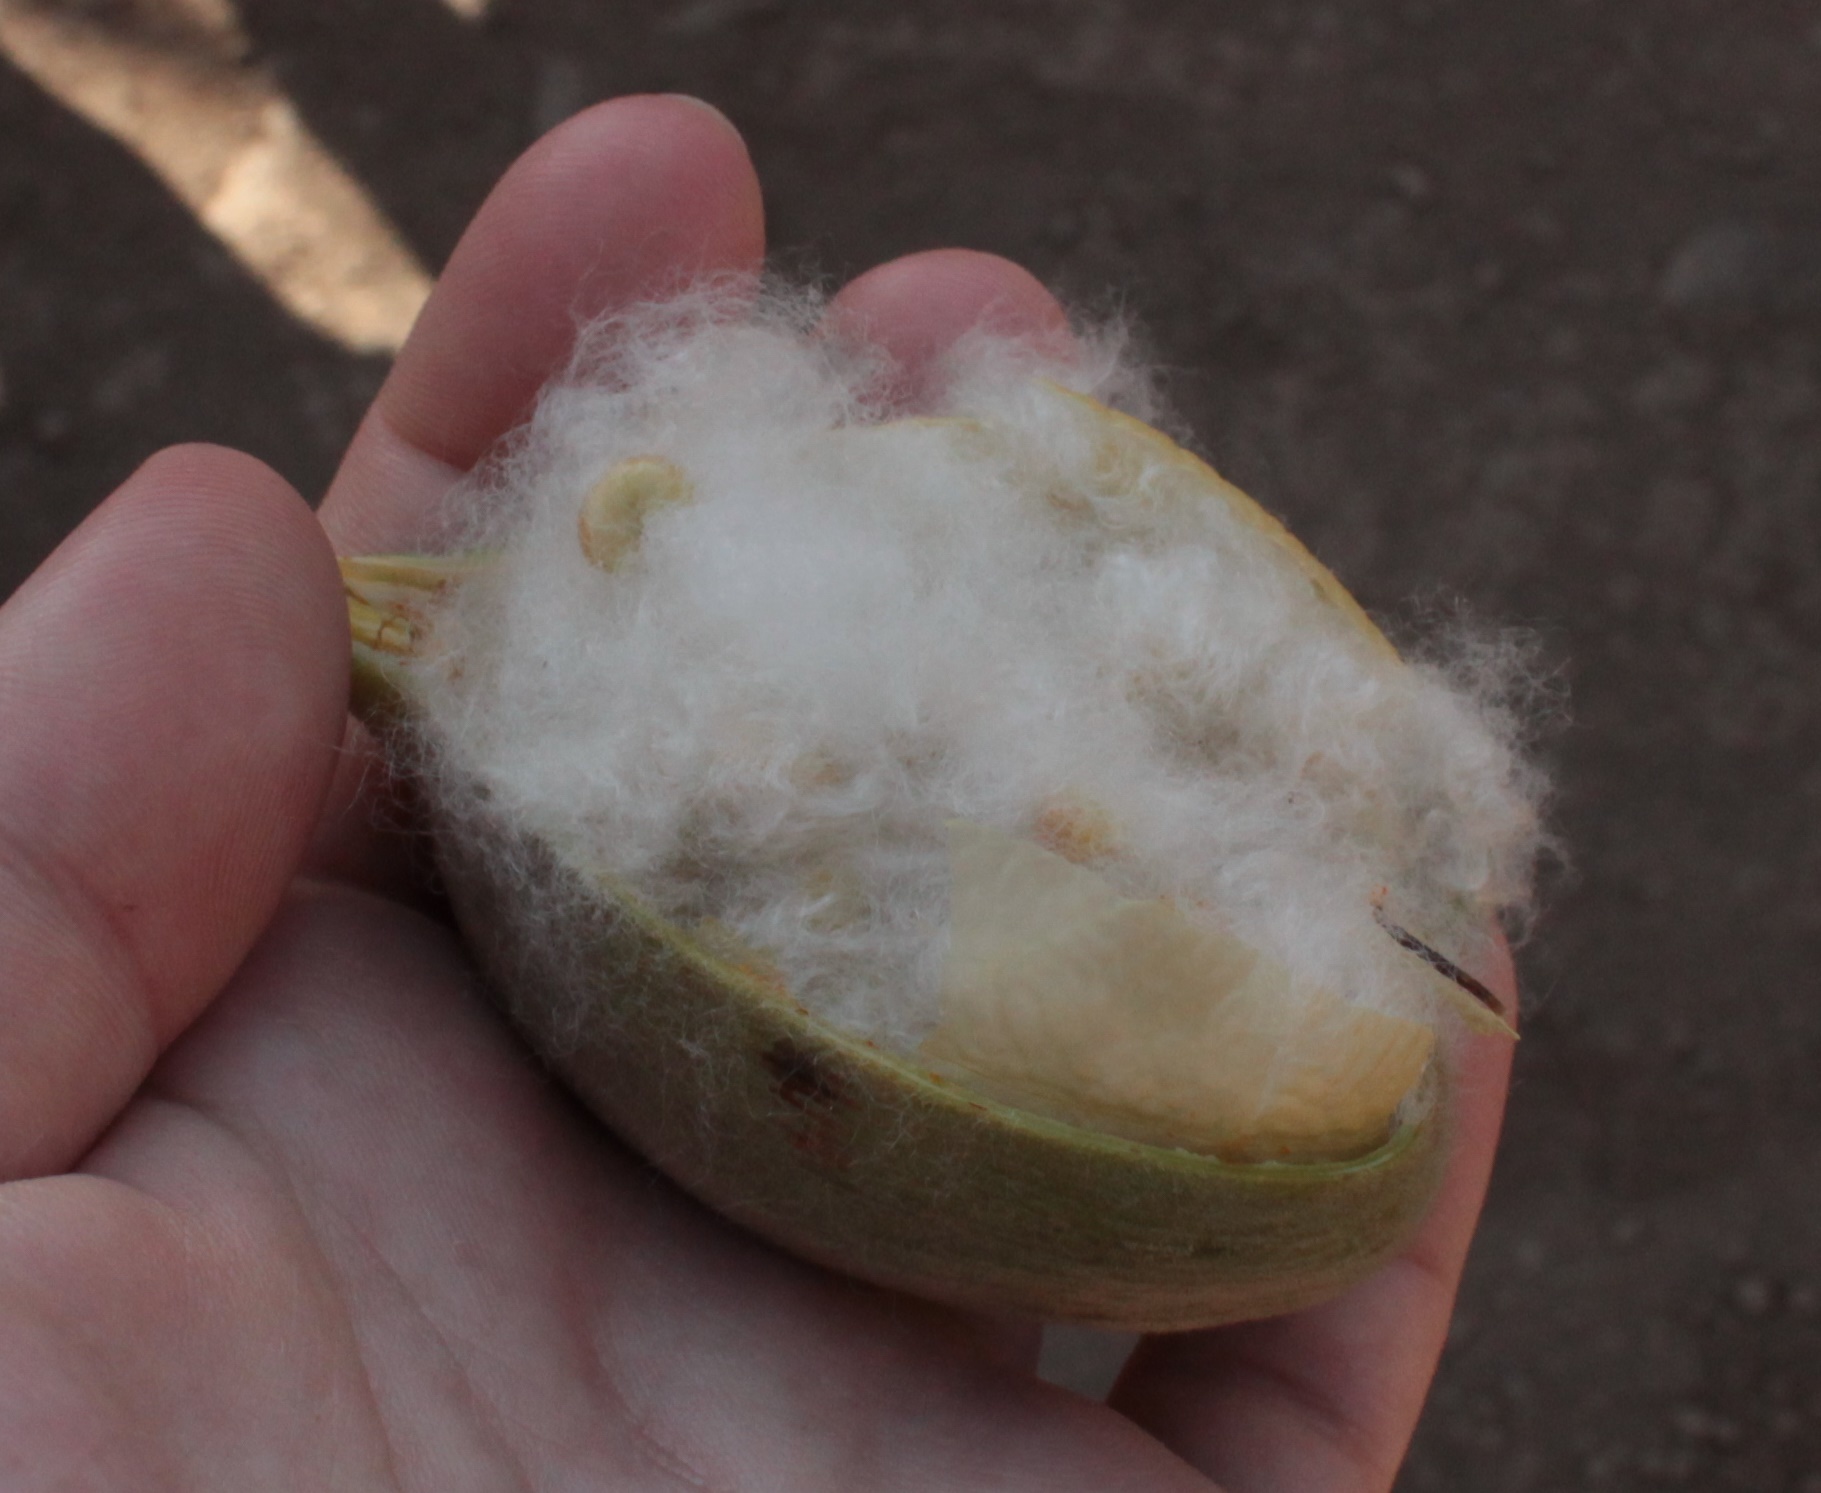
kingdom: Plantae
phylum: Tracheophyta
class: Magnoliopsida
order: Malvales
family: Cochlospermaceae
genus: Cochlospermum
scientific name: Cochlospermum vitifolium
